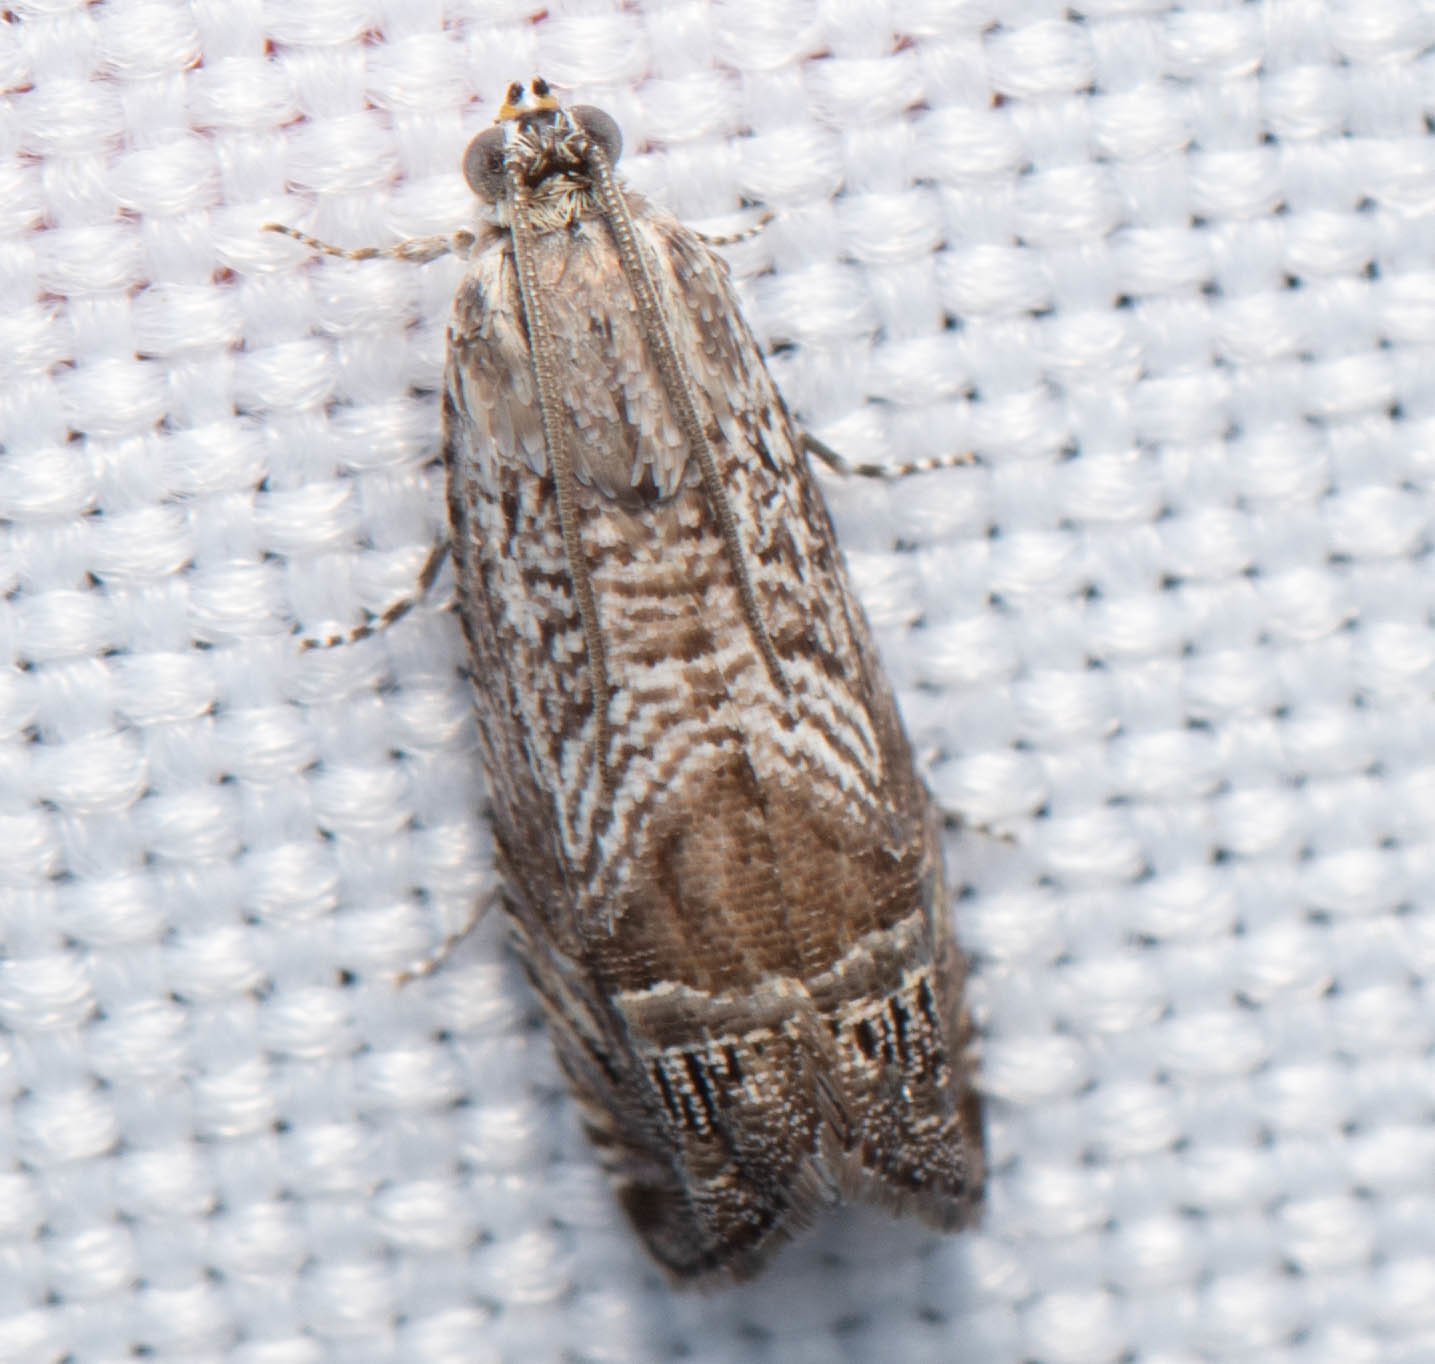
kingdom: Animalia
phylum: Arthropoda
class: Insecta
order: Lepidoptera
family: Tortricidae
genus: Ofatulena
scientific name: Ofatulena duodecemstriata
